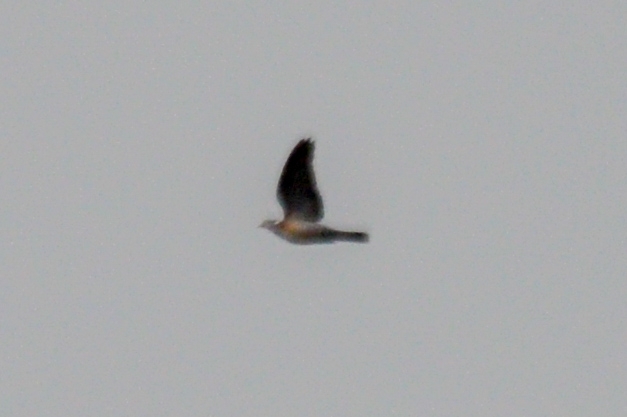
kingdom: Animalia
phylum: Chordata
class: Aves
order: Columbiformes
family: Columbidae
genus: Columba
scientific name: Columba palumbus
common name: Common wood pigeon
